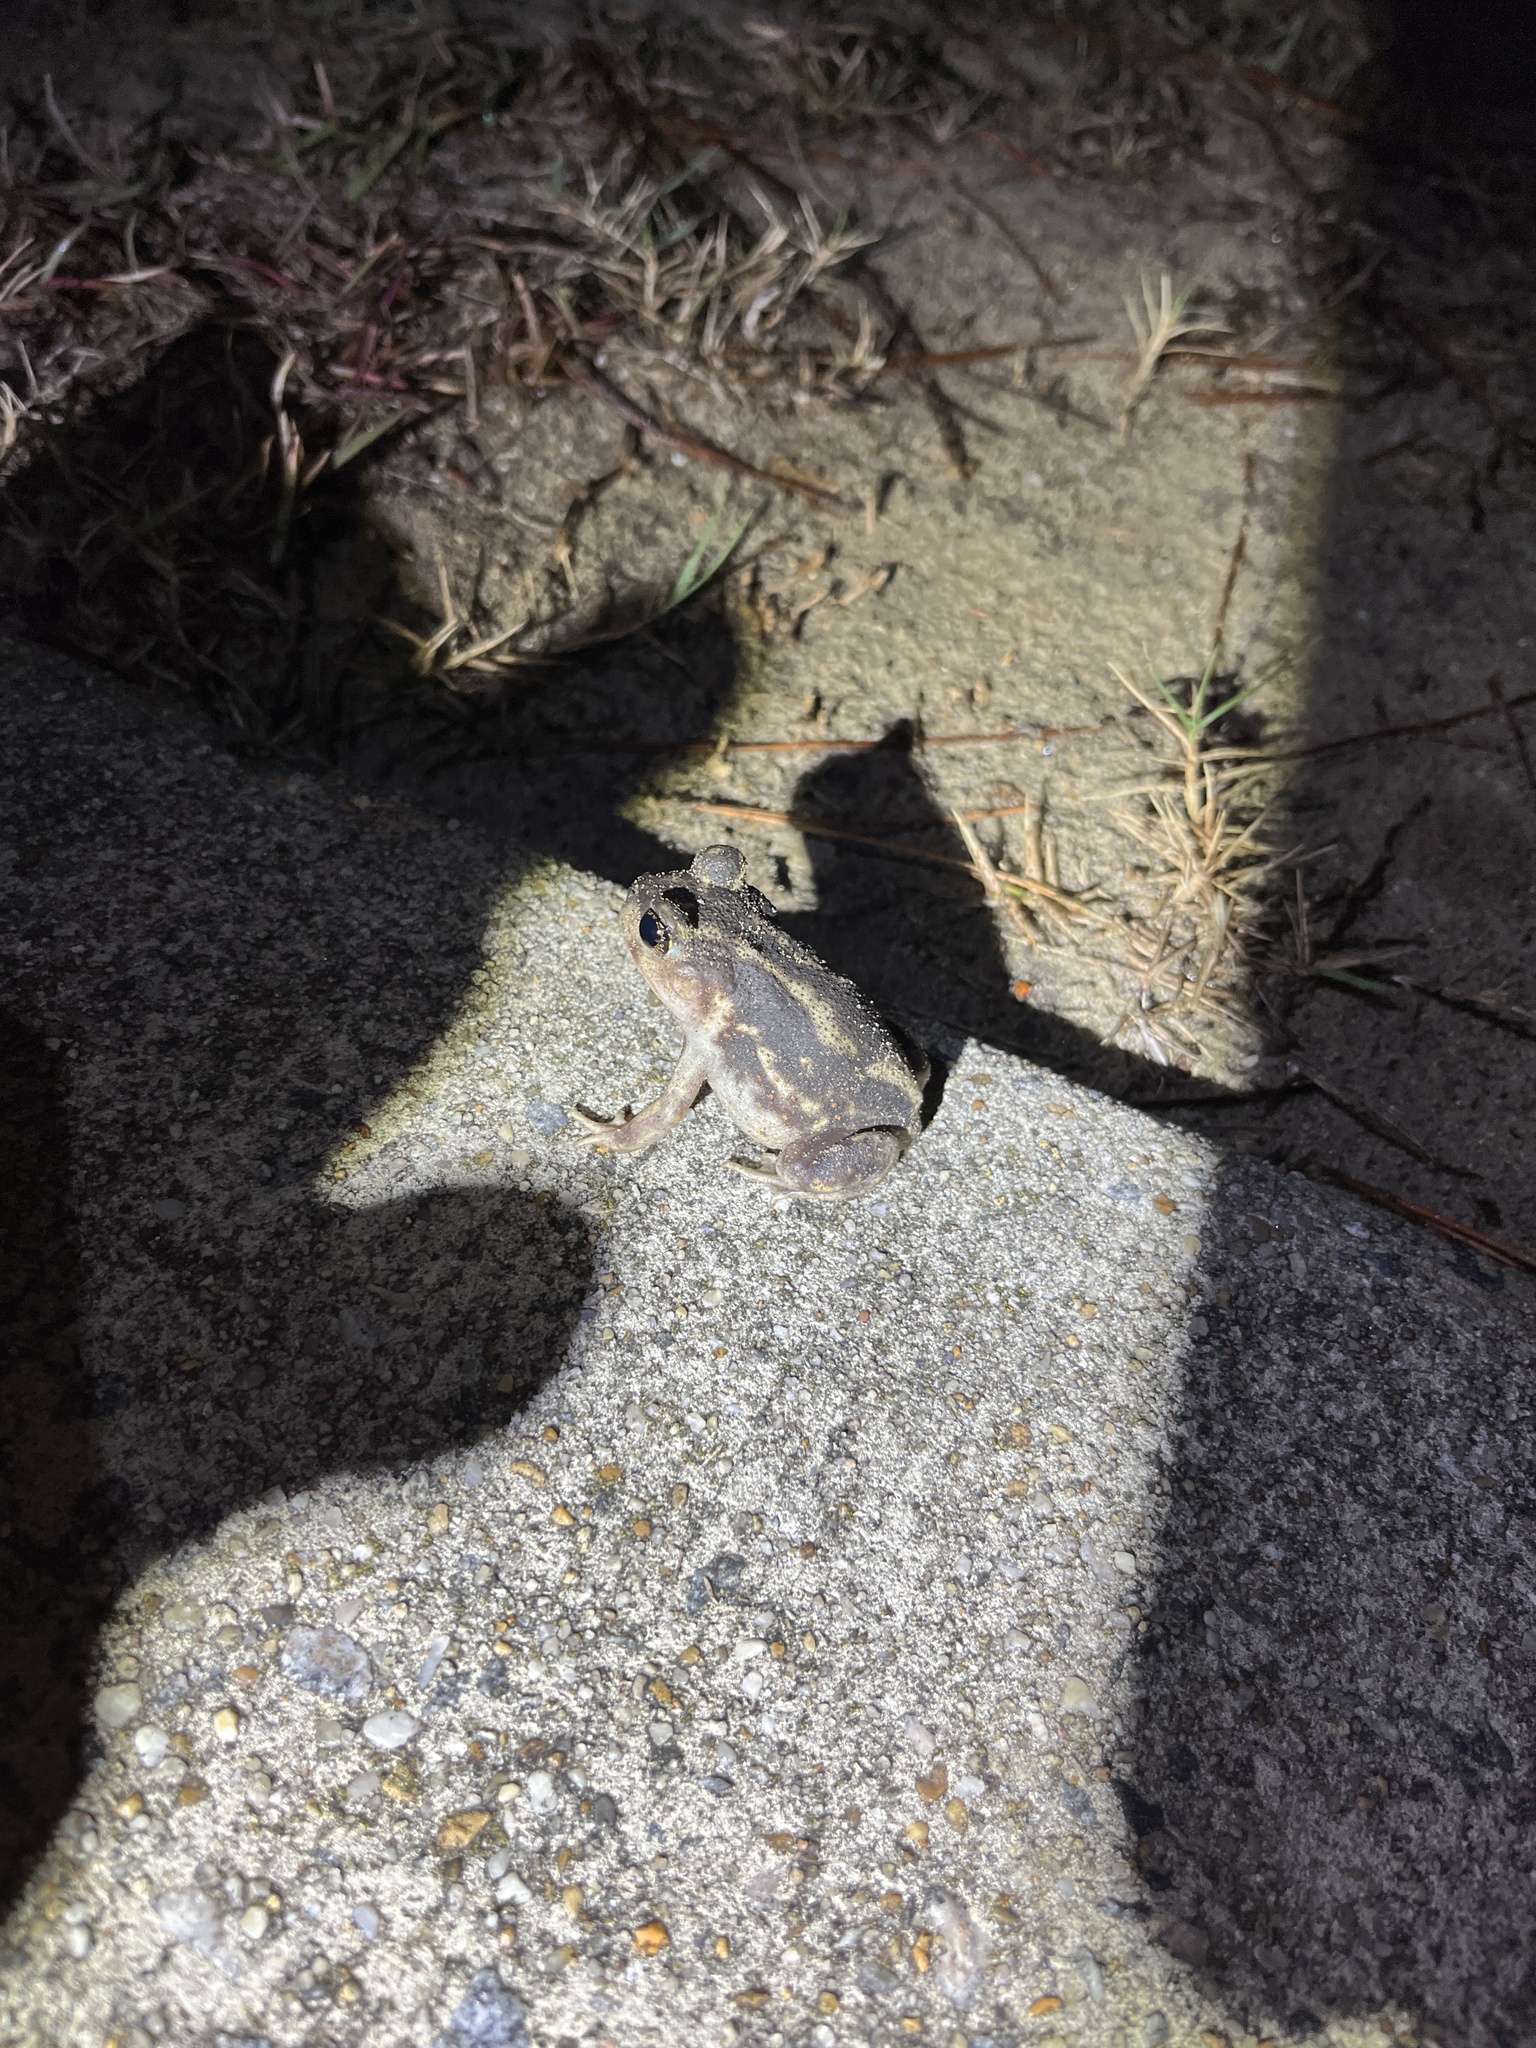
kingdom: Animalia
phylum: Chordata
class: Amphibia
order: Anura
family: Scaphiopodidae
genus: Scaphiopus
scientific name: Scaphiopus holbrookii
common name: Eastern spadefoot toad
